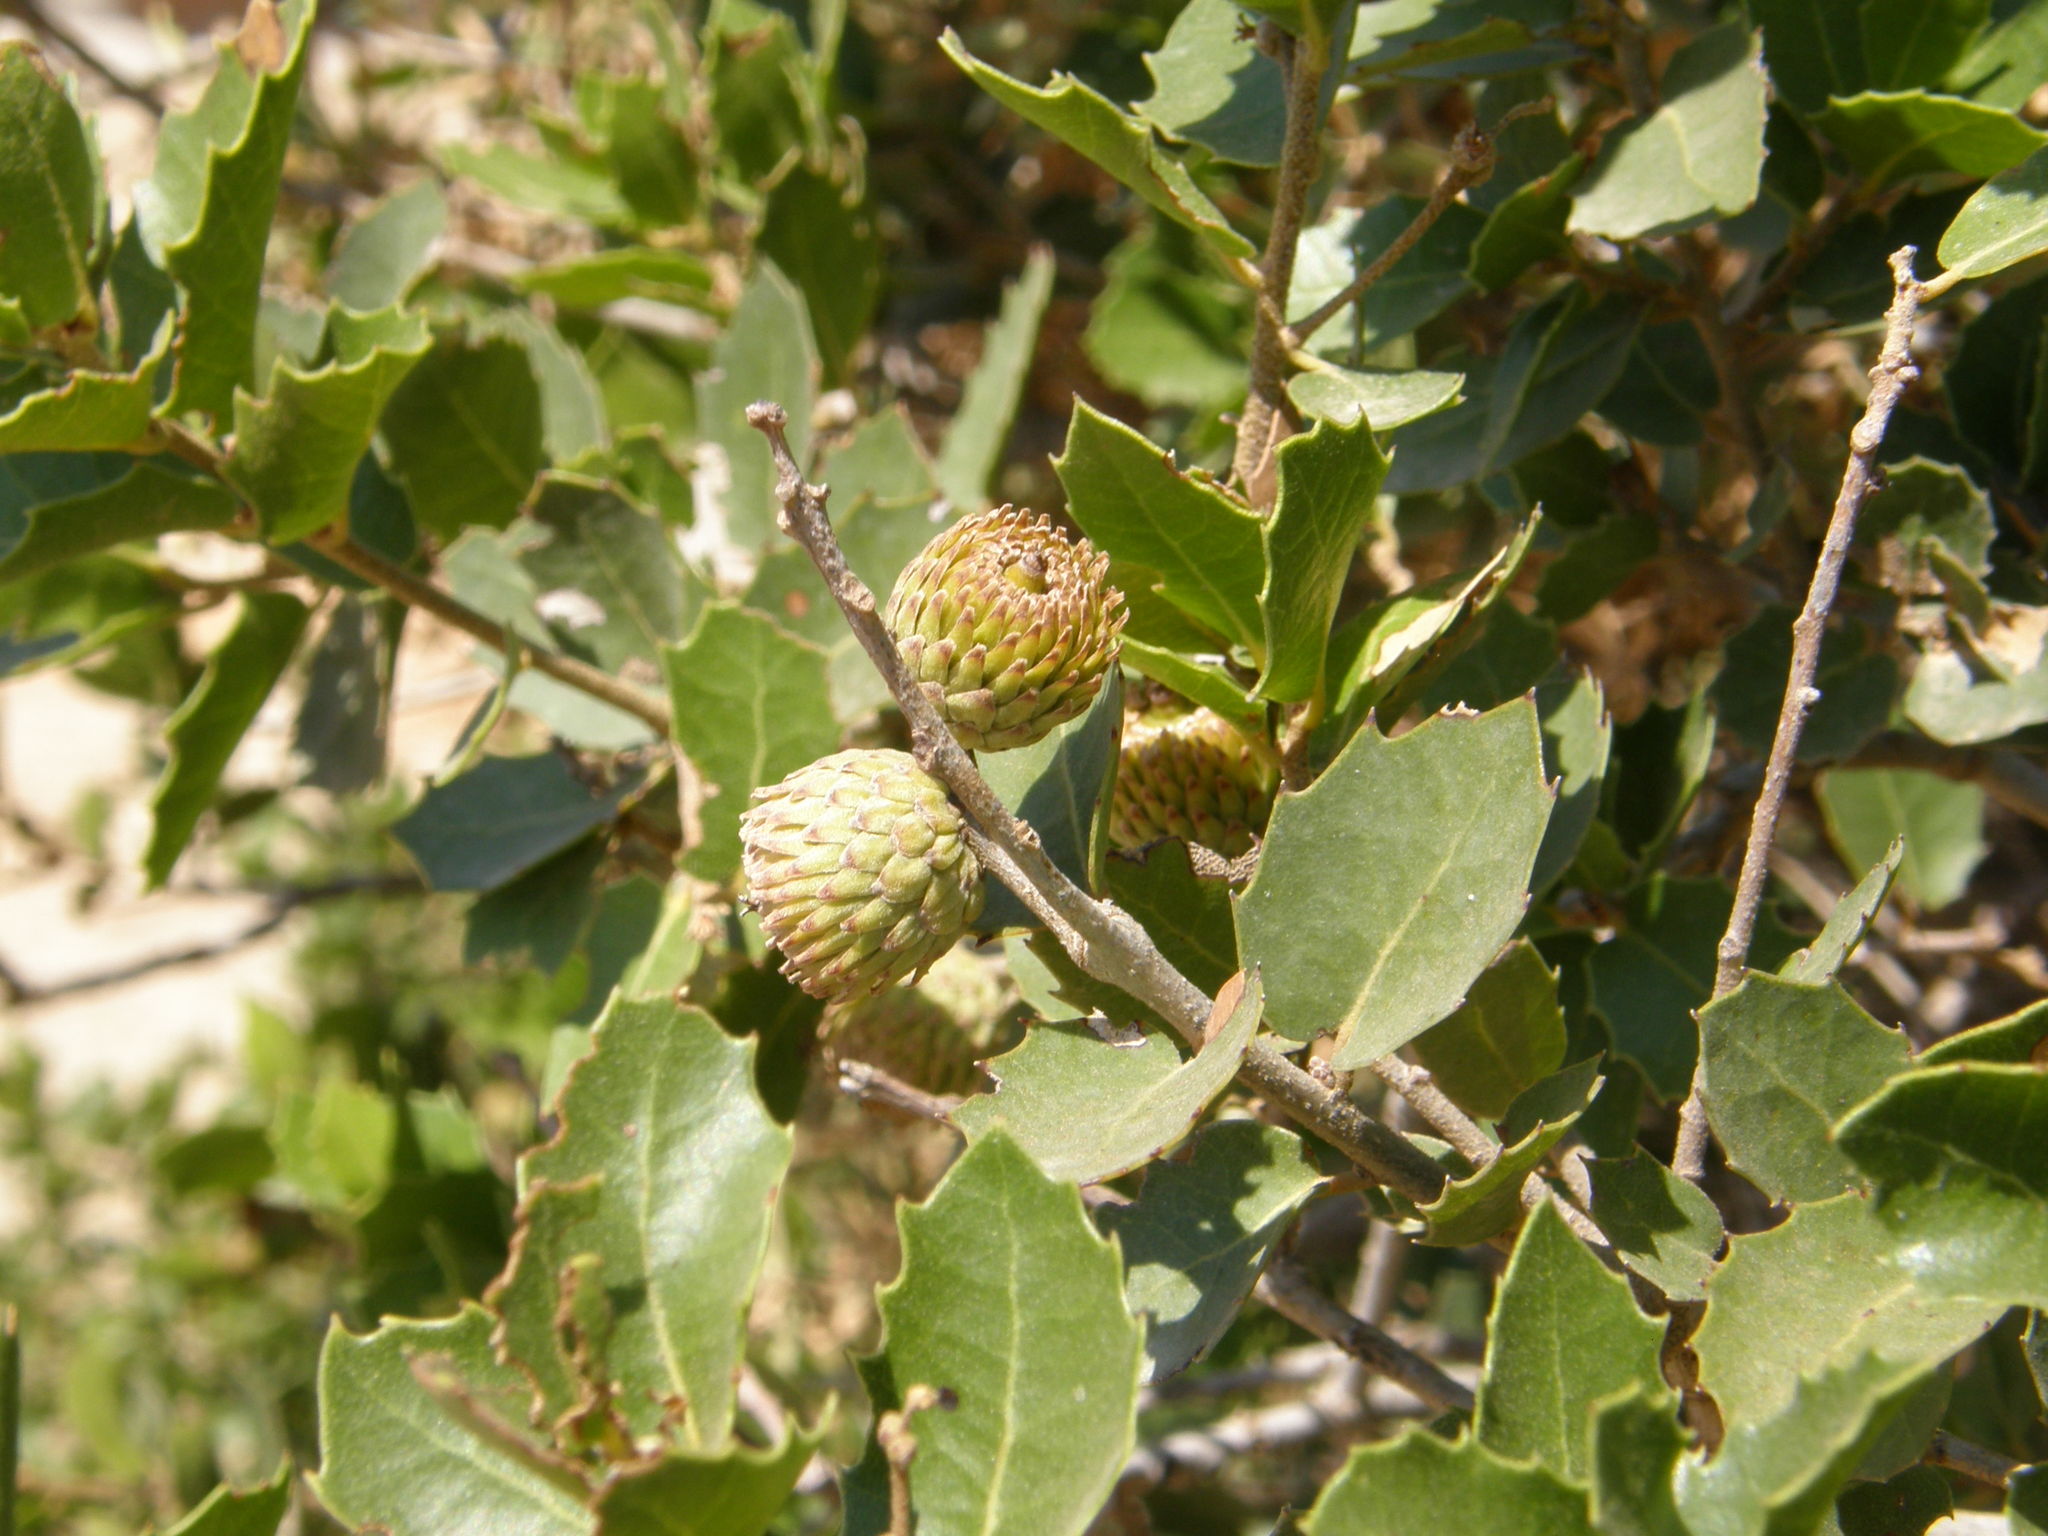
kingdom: Plantae
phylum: Tracheophyta
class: Magnoliopsida
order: Fagales
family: Fagaceae
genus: Quercus
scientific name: Quercus coccifera
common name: Kermes oak
